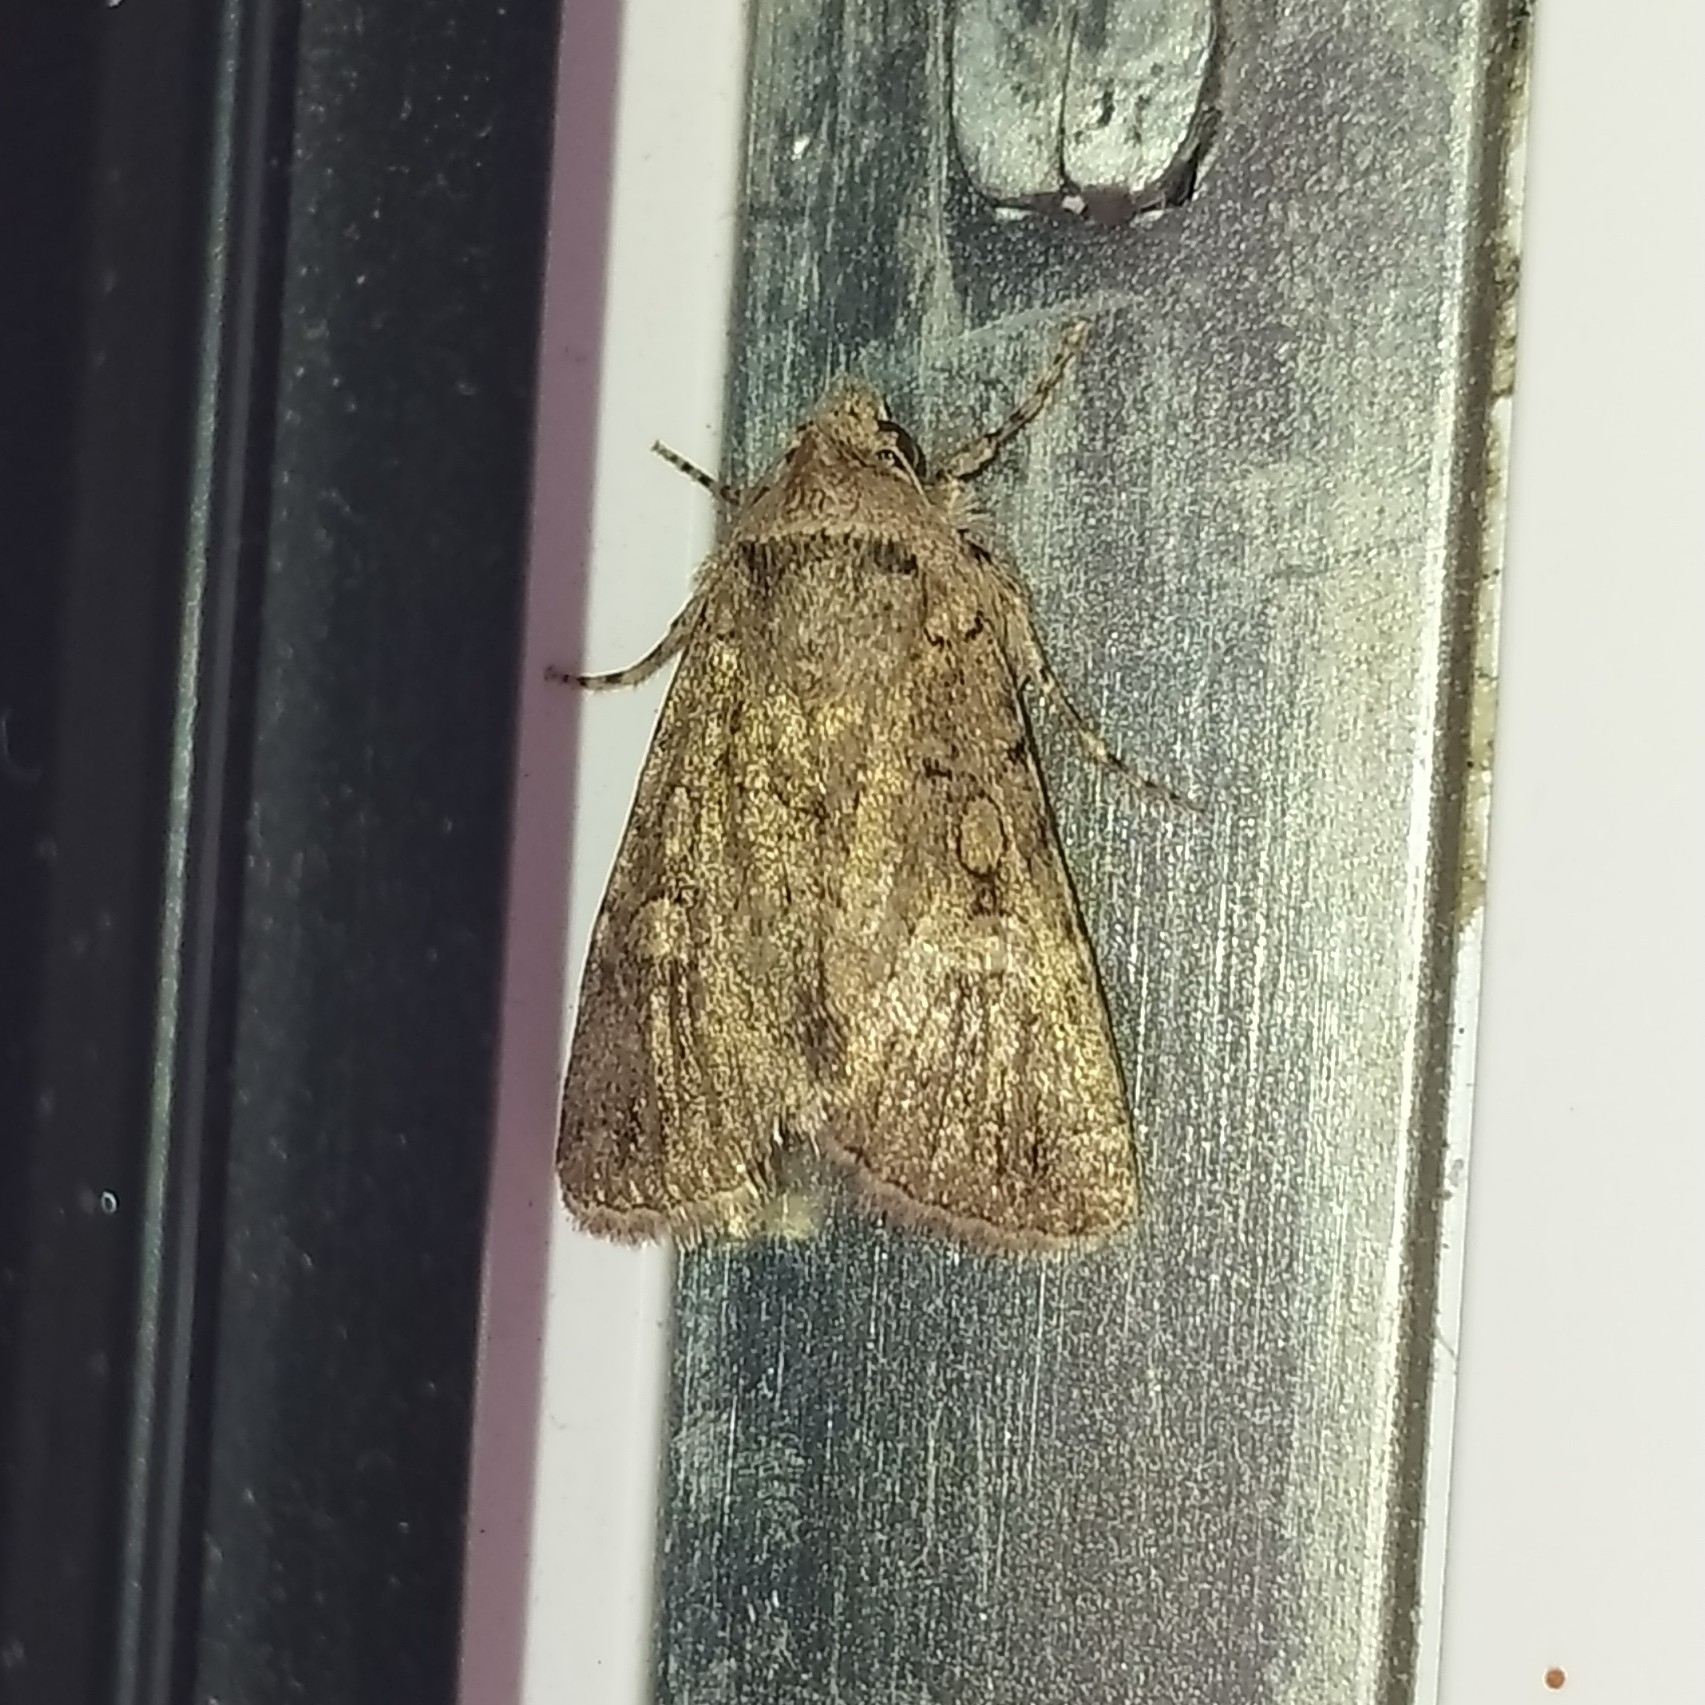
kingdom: Animalia
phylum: Arthropoda
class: Insecta
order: Lepidoptera
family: Noctuidae
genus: Sympistis
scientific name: Sympistis
